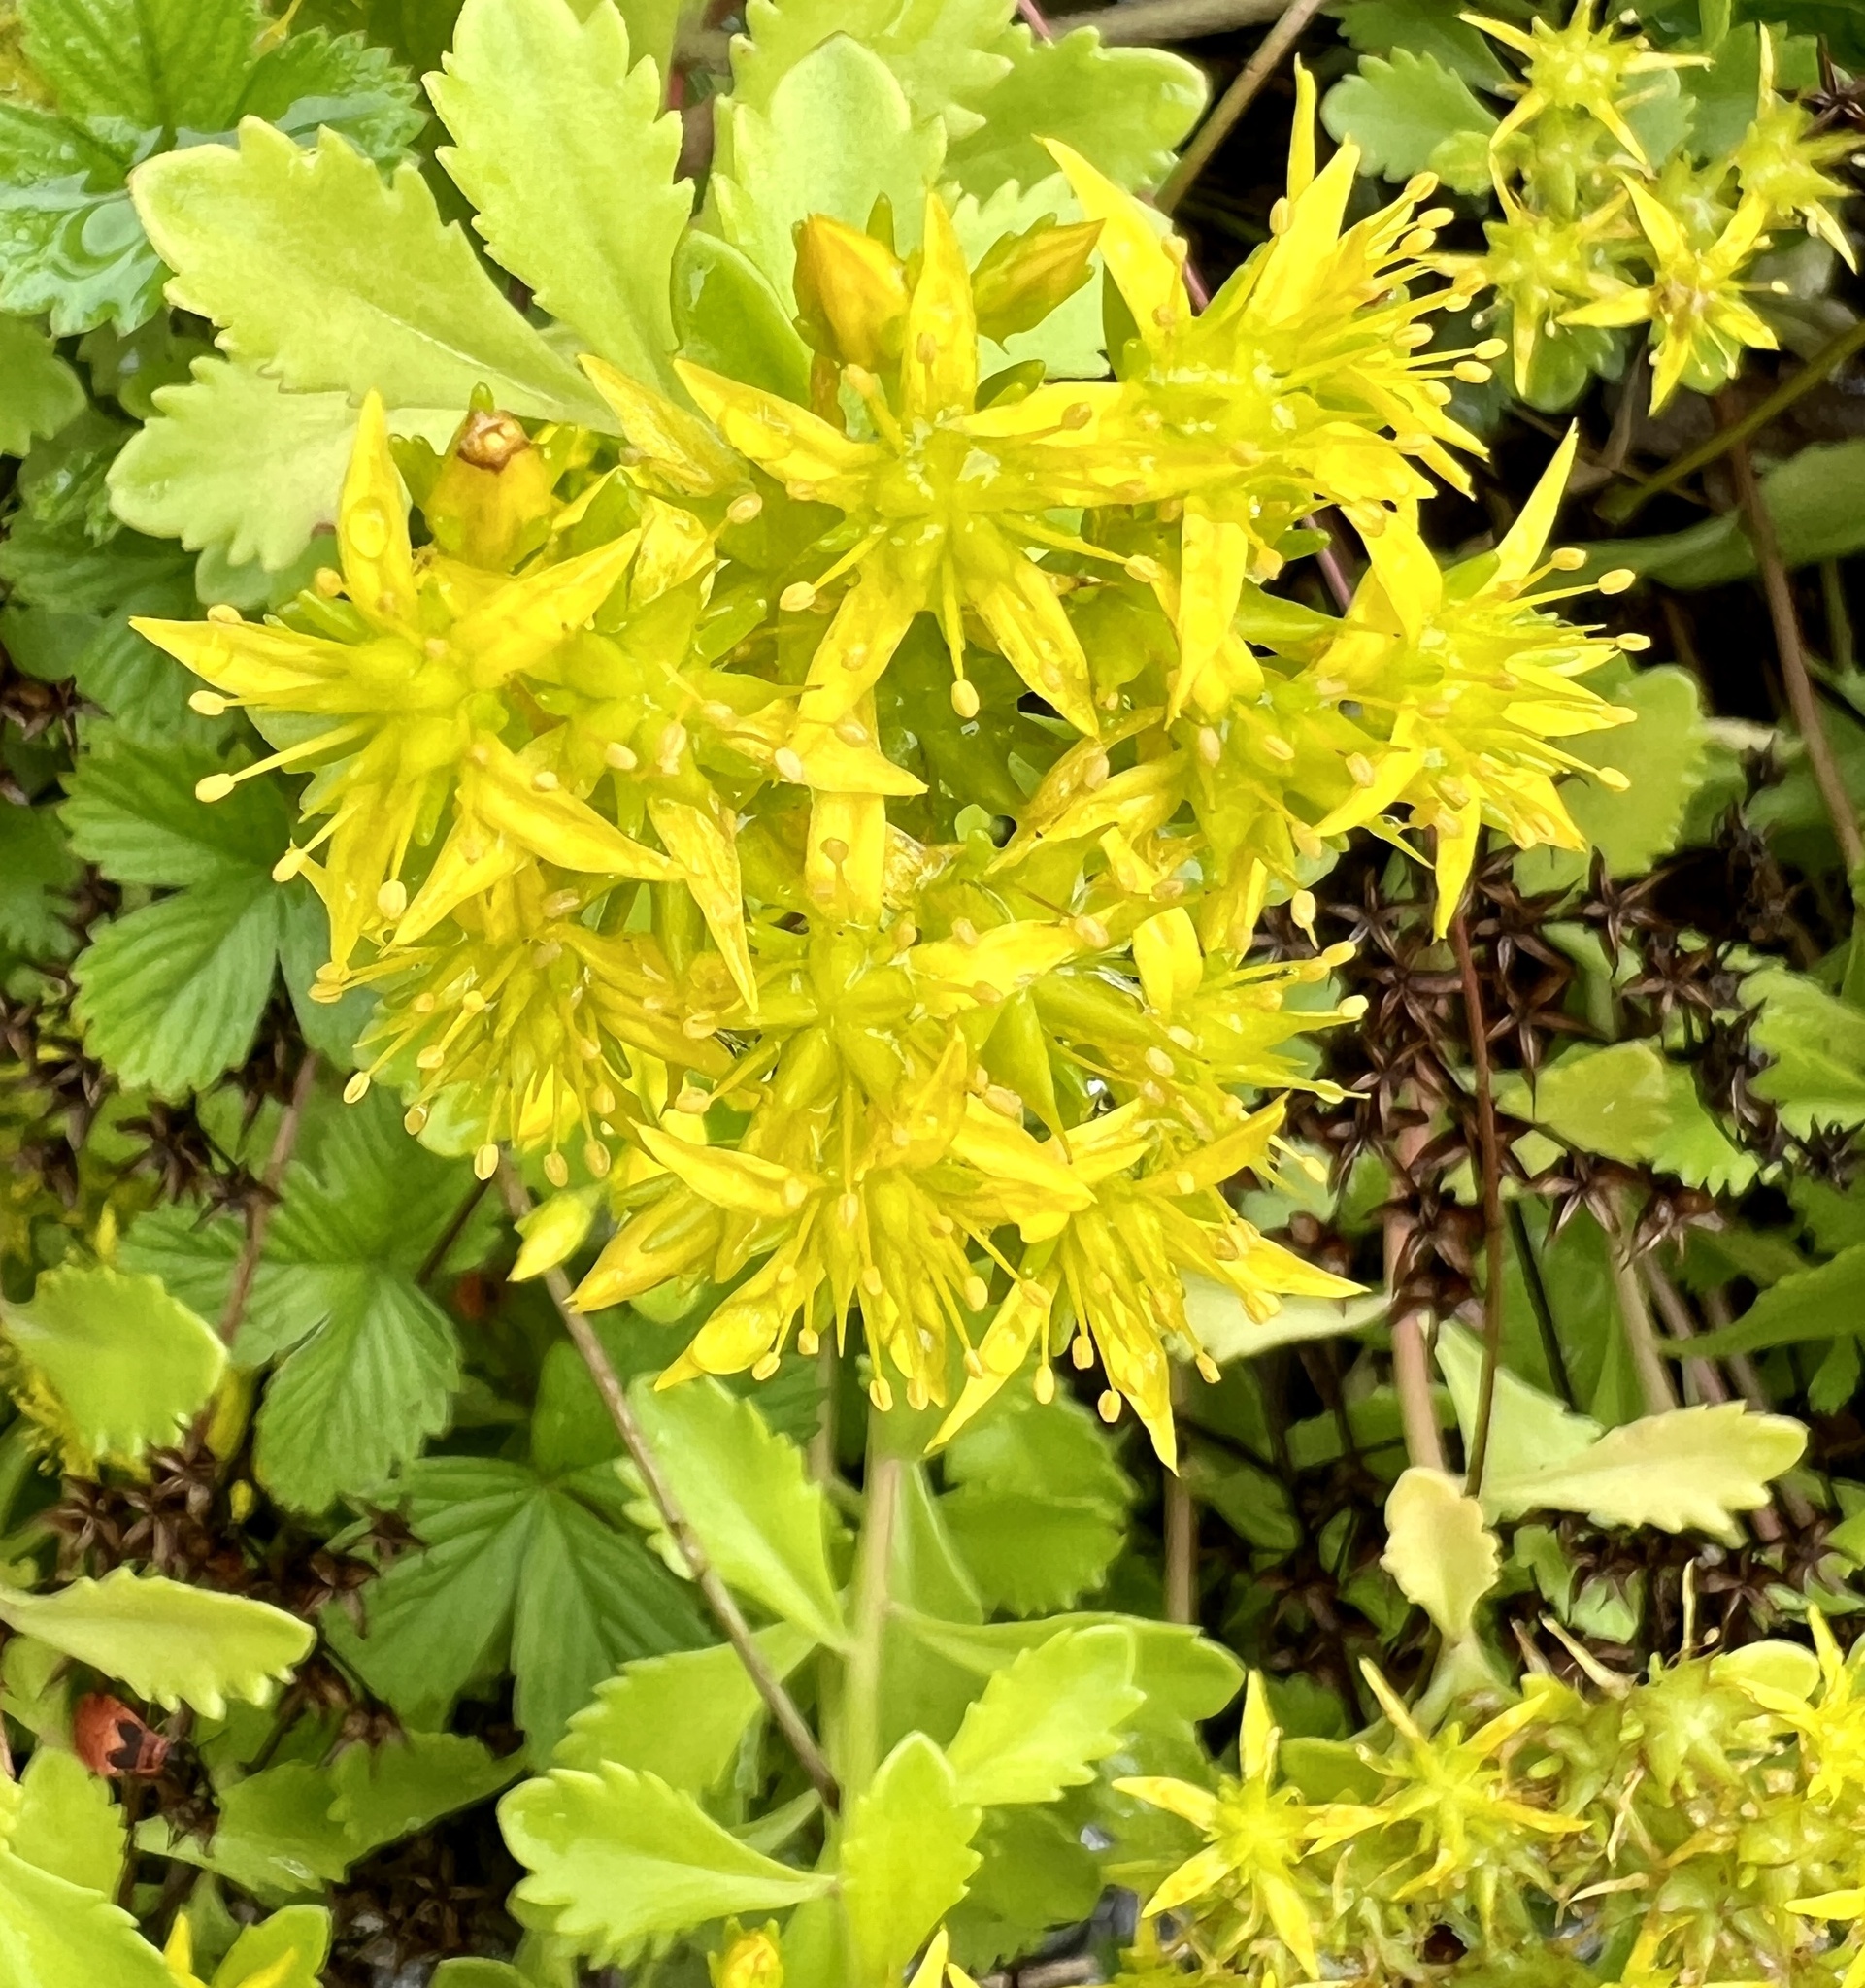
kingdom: Plantae
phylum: Tracheophyta
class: Magnoliopsida
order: Saxifragales
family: Crassulaceae
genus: Phedimus
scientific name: Phedimus ellacombeanus
